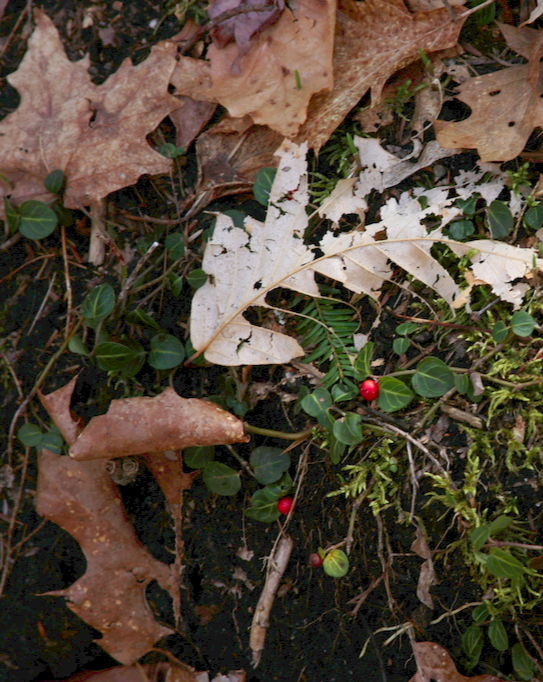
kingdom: Plantae
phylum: Tracheophyta
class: Magnoliopsida
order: Gentianales
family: Rubiaceae
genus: Mitchella
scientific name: Mitchella repens
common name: Partridge-berry
